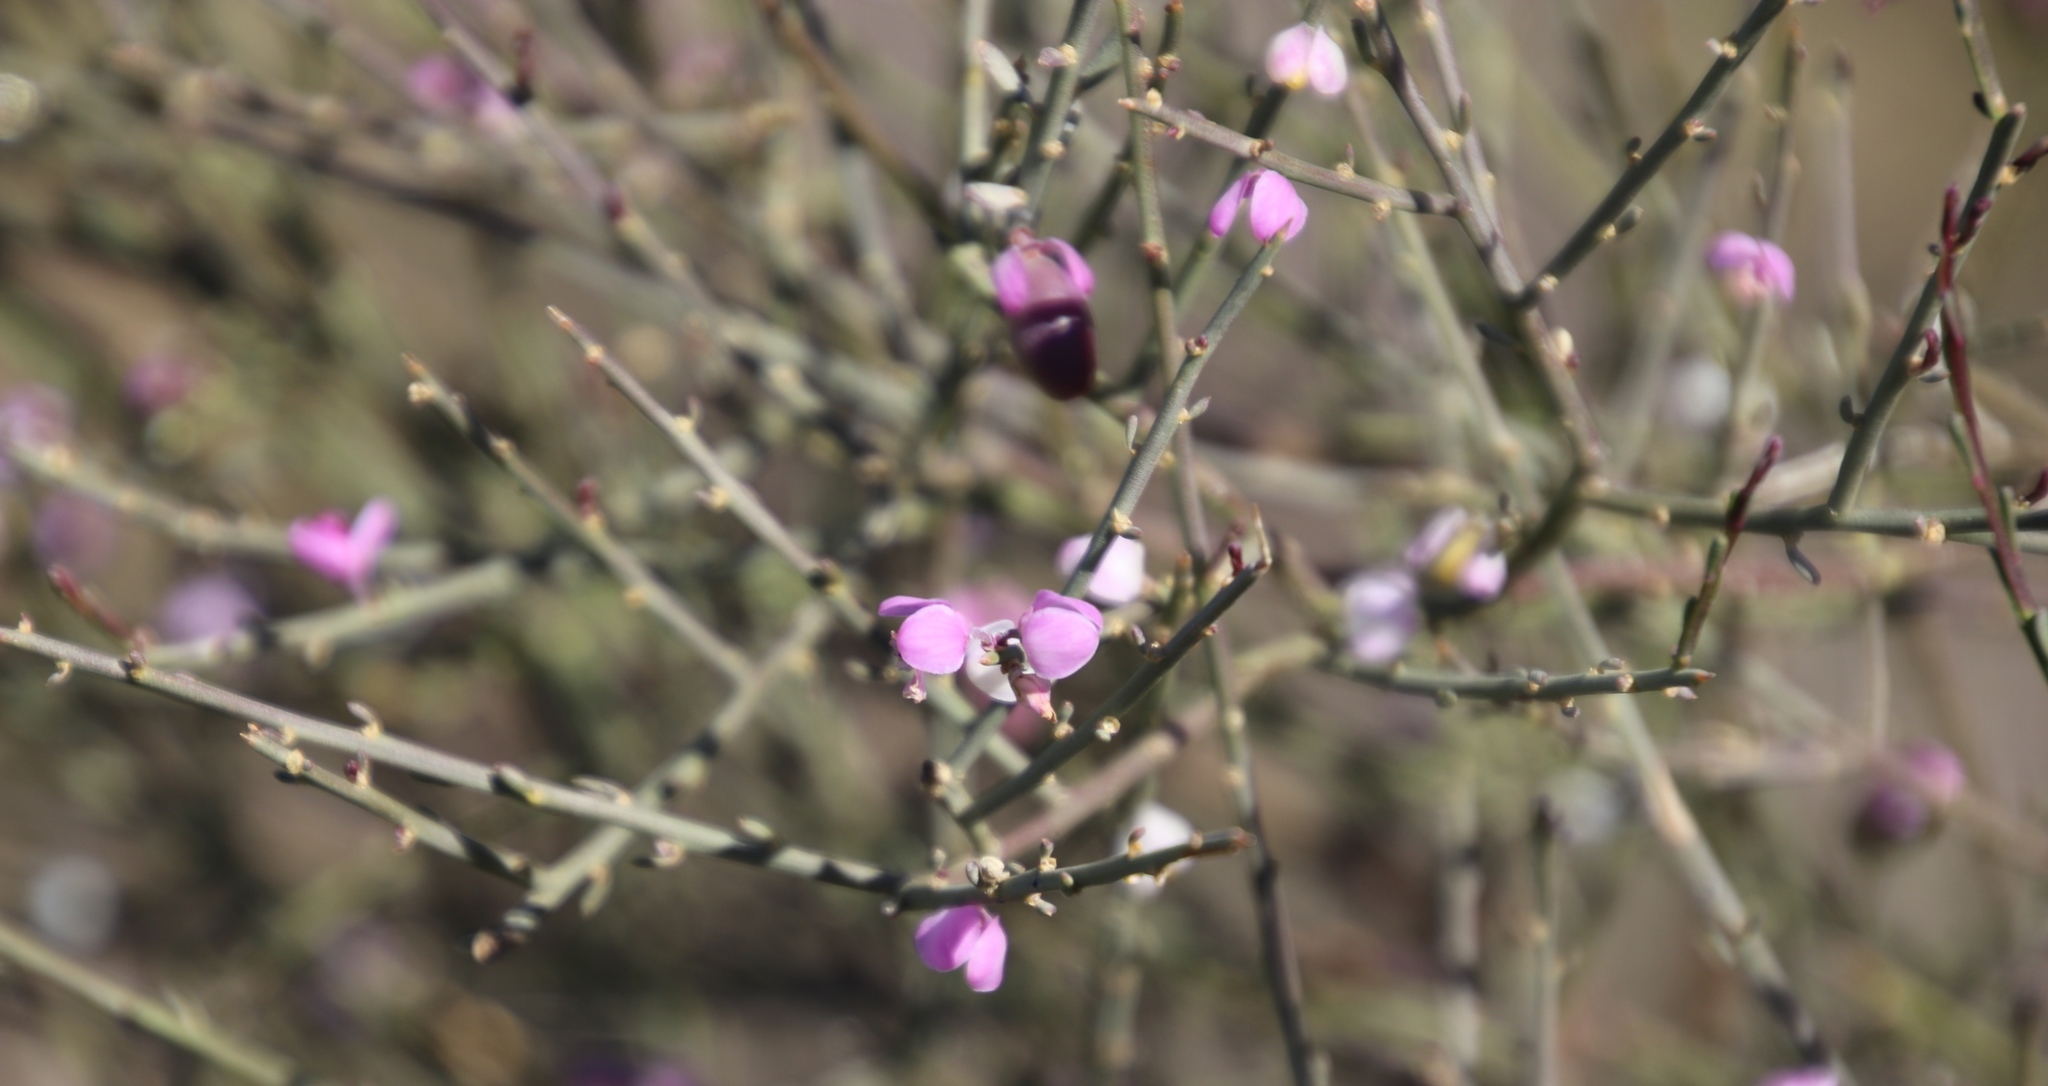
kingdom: Plantae
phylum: Tracheophyta
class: Magnoliopsida
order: Fabales
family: Polygalaceae
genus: Muraltia
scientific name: Muraltia scoparia
